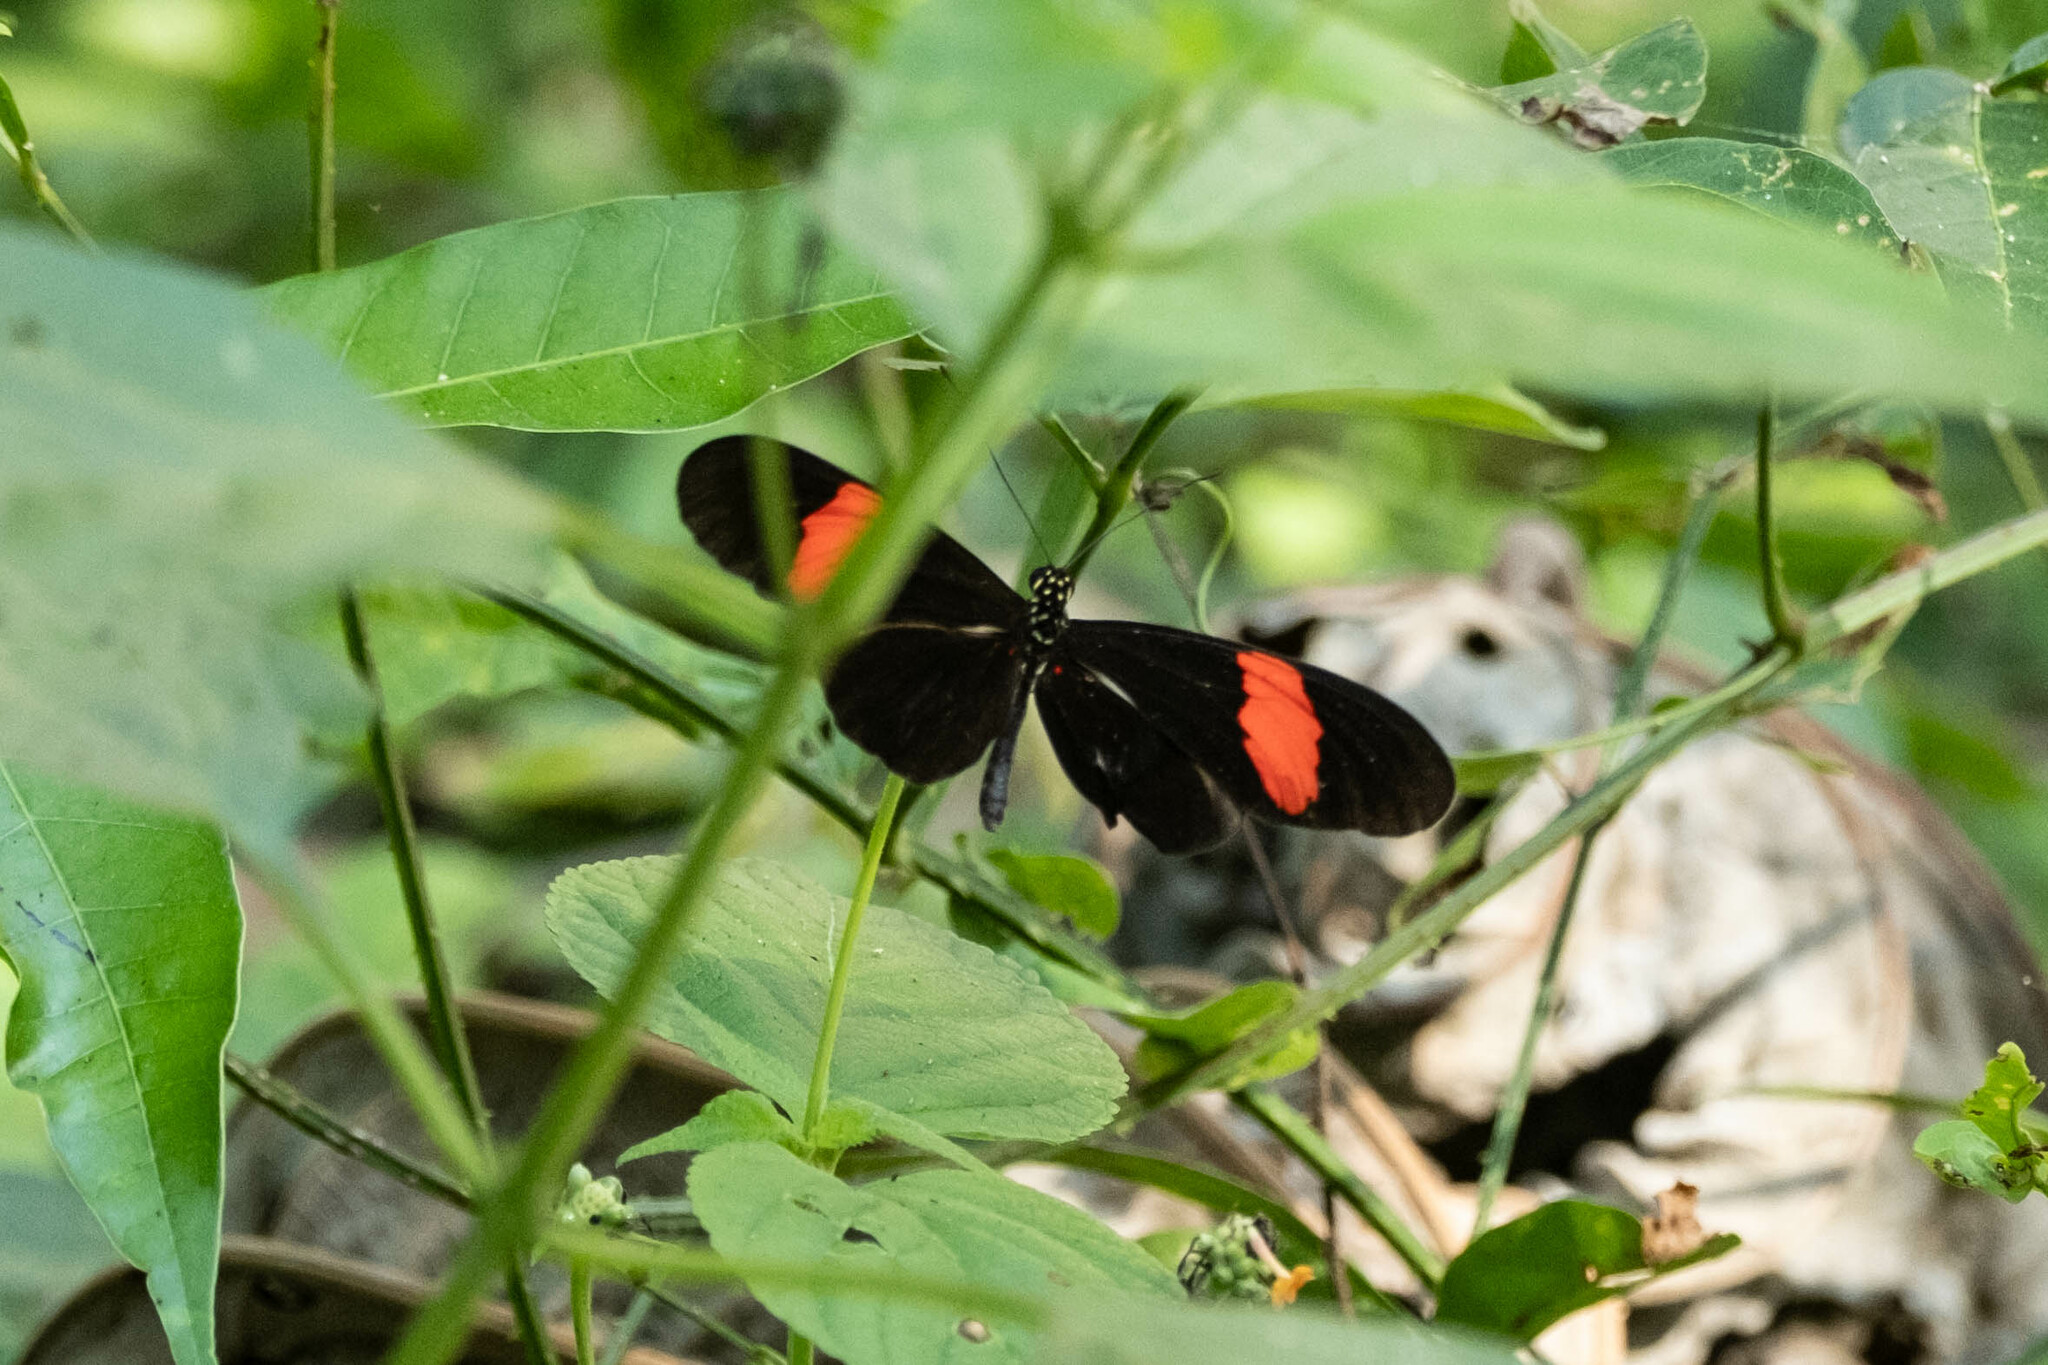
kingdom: Animalia
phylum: Arthropoda
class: Insecta
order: Lepidoptera
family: Nymphalidae
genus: Heliconius
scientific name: Heliconius erato
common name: Common patch longwing
